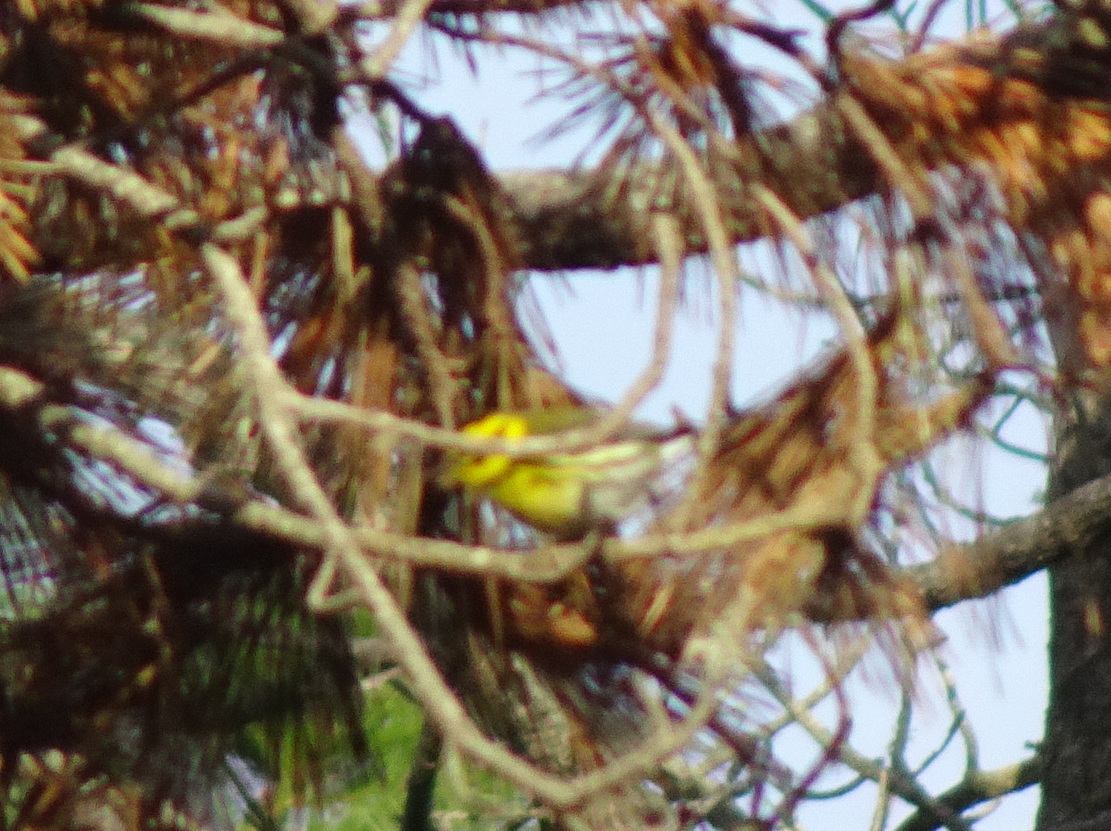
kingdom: Animalia
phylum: Chordata
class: Aves
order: Passeriformes
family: Parulidae
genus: Setophaga
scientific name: Setophaga townsendi
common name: Townsend's warbler
